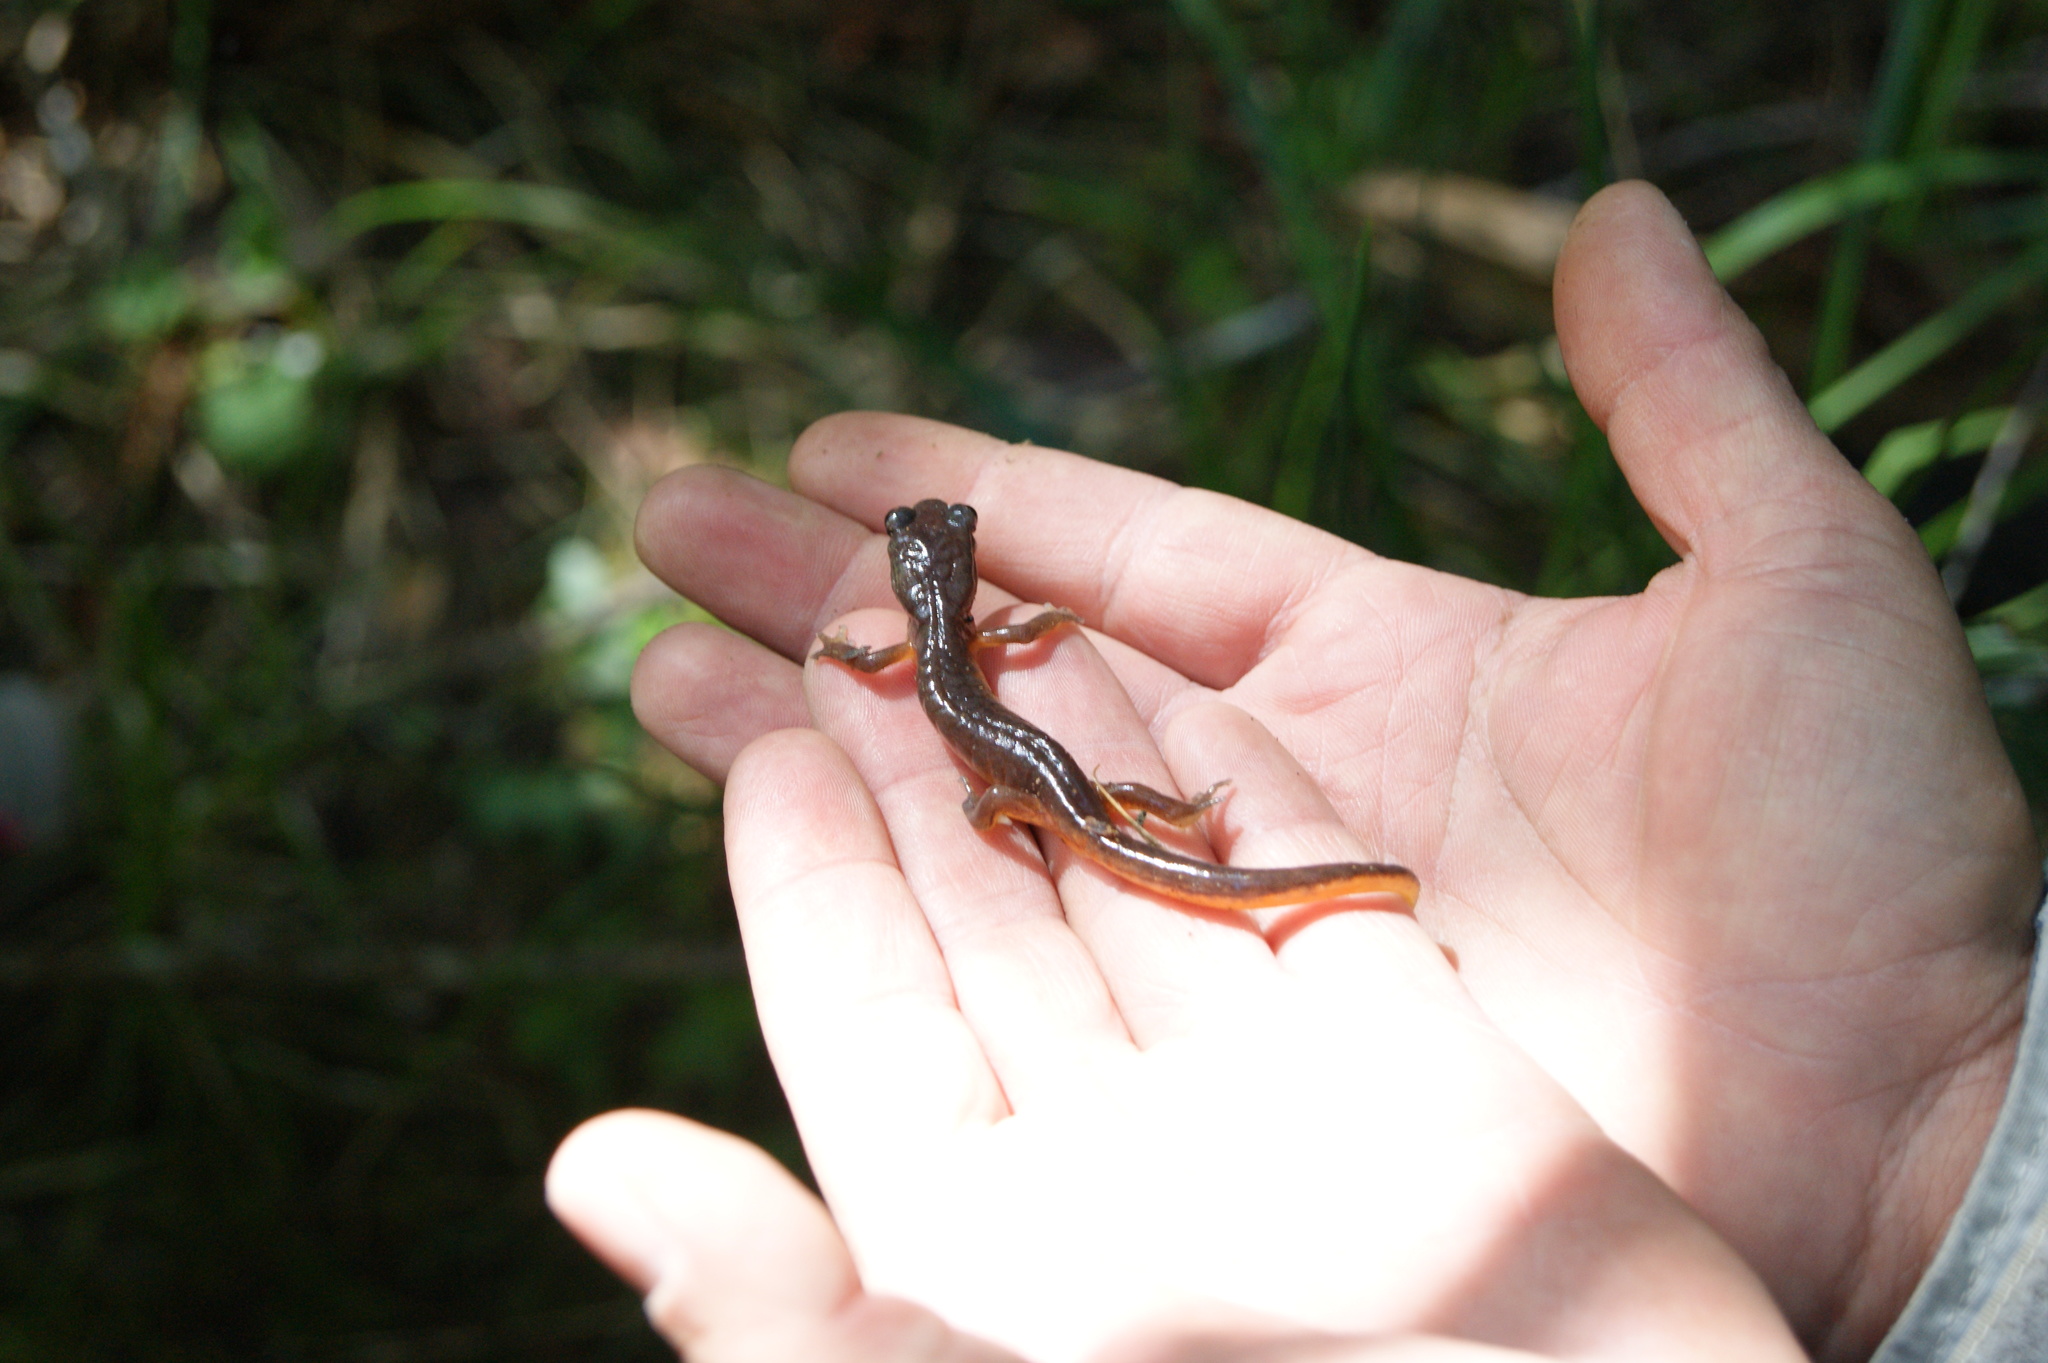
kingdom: Animalia
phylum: Chordata
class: Amphibia
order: Caudata
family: Plethodontidae
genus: Ensatina
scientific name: Ensatina eschscholtzii
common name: Ensatina
